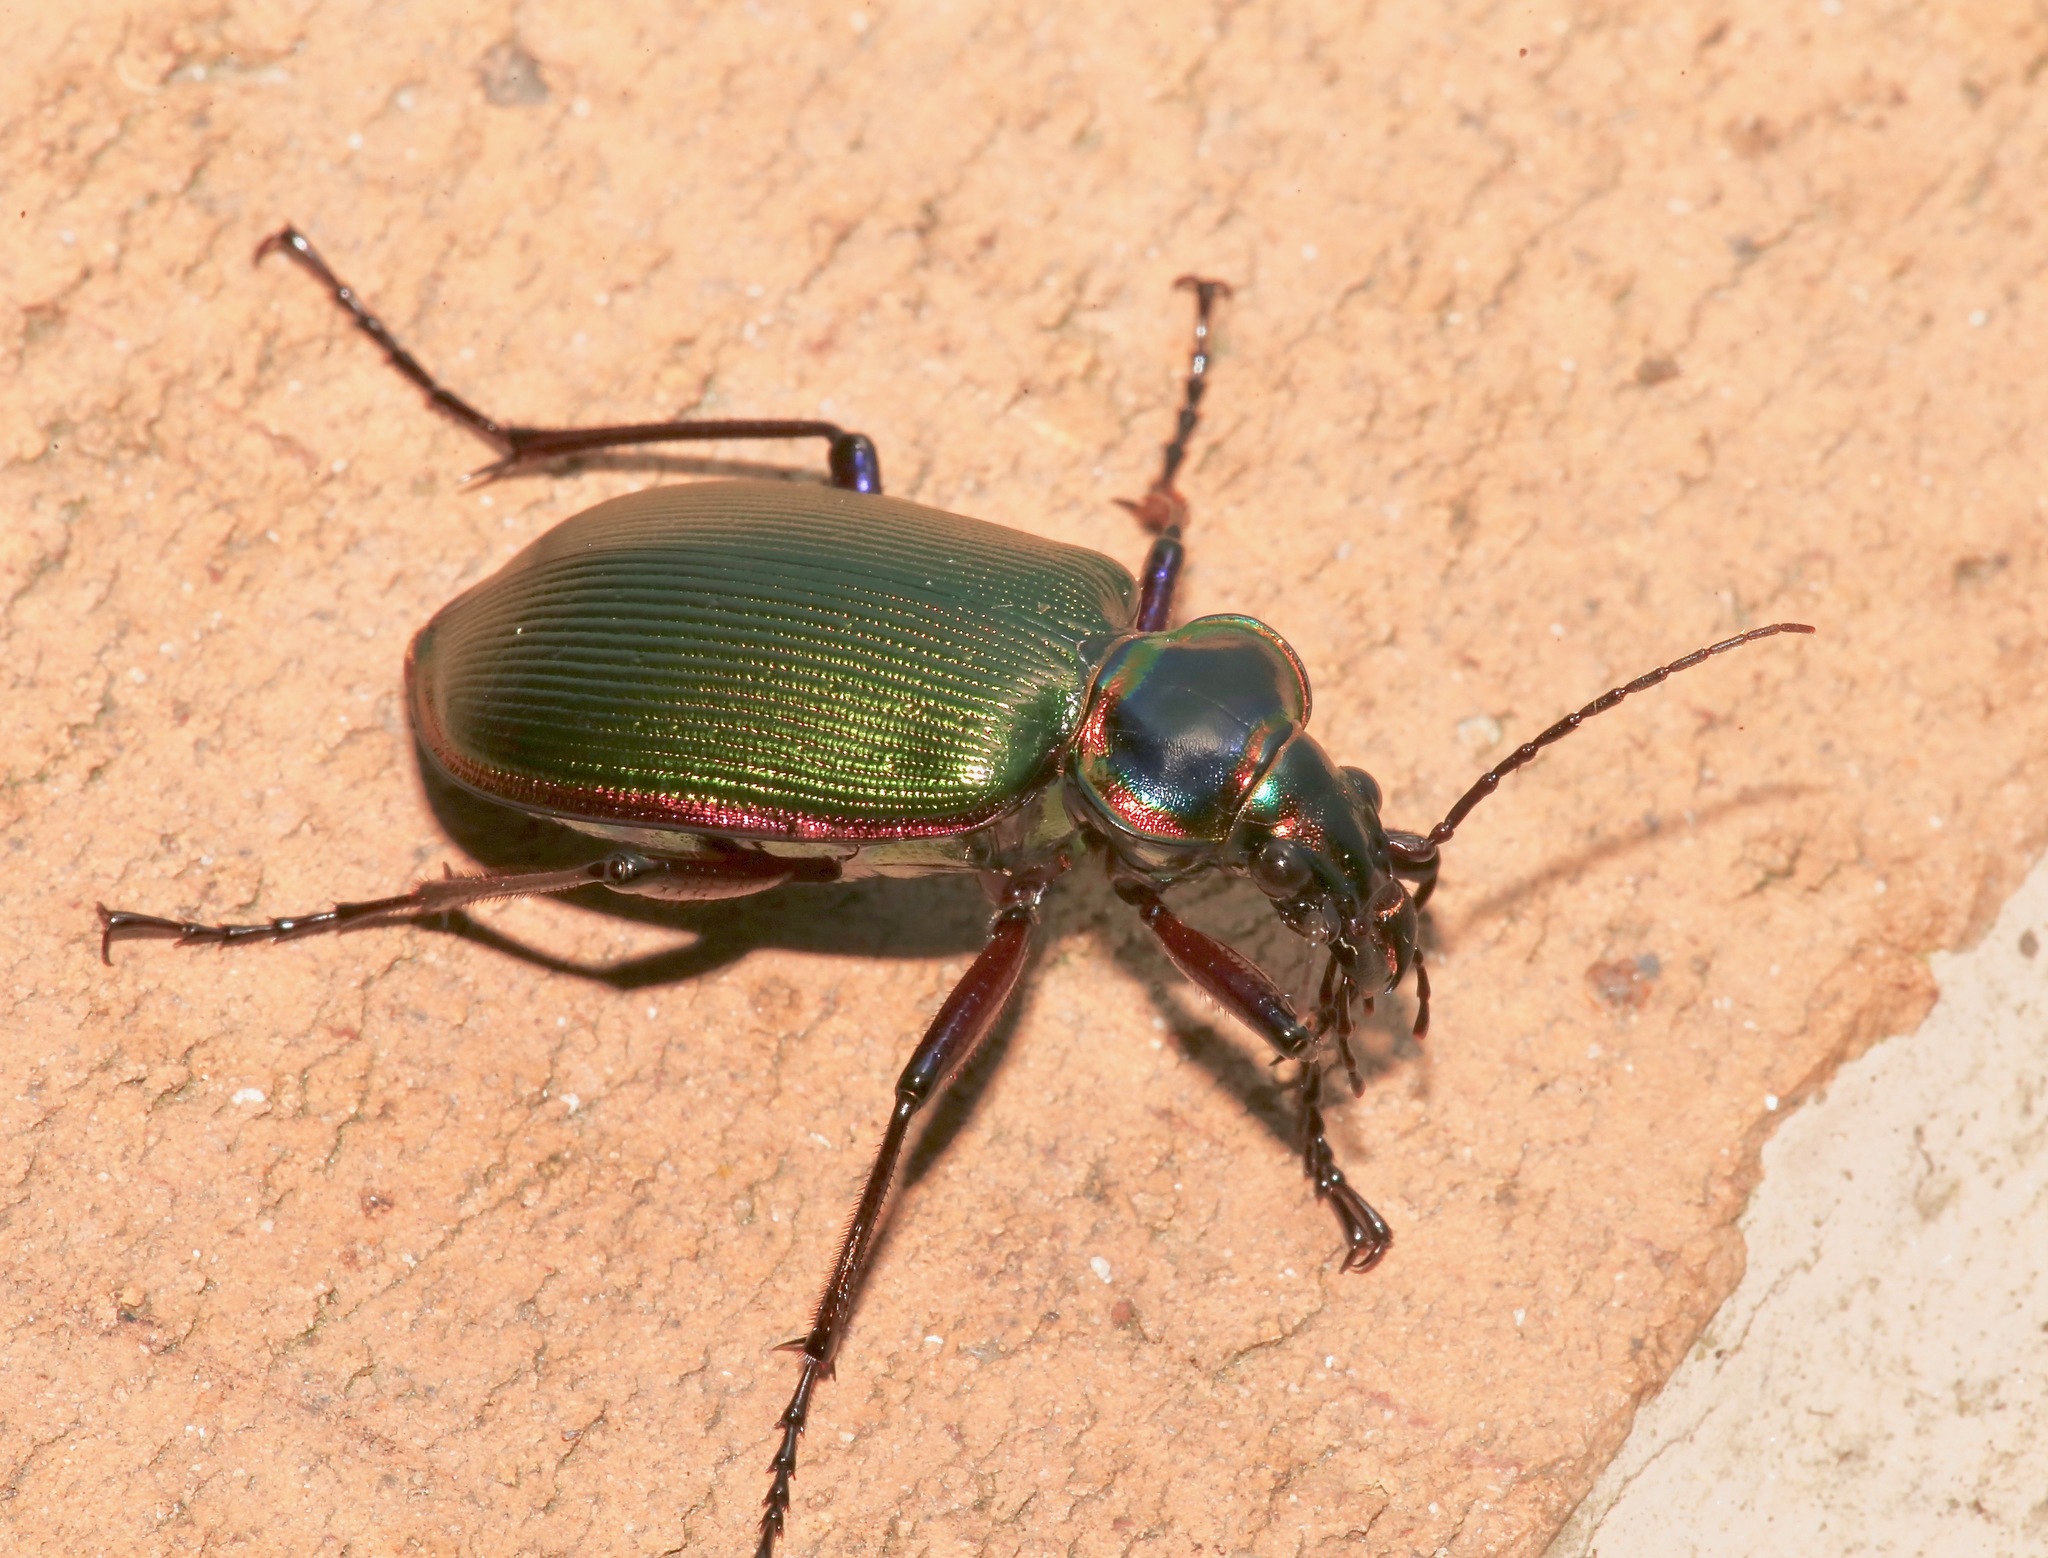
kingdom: Animalia
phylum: Arthropoda
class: Insecta
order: Coleoptera
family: Carabidae
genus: Calosoma
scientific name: Calosoma scrutator
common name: Fiery searcher beetle
